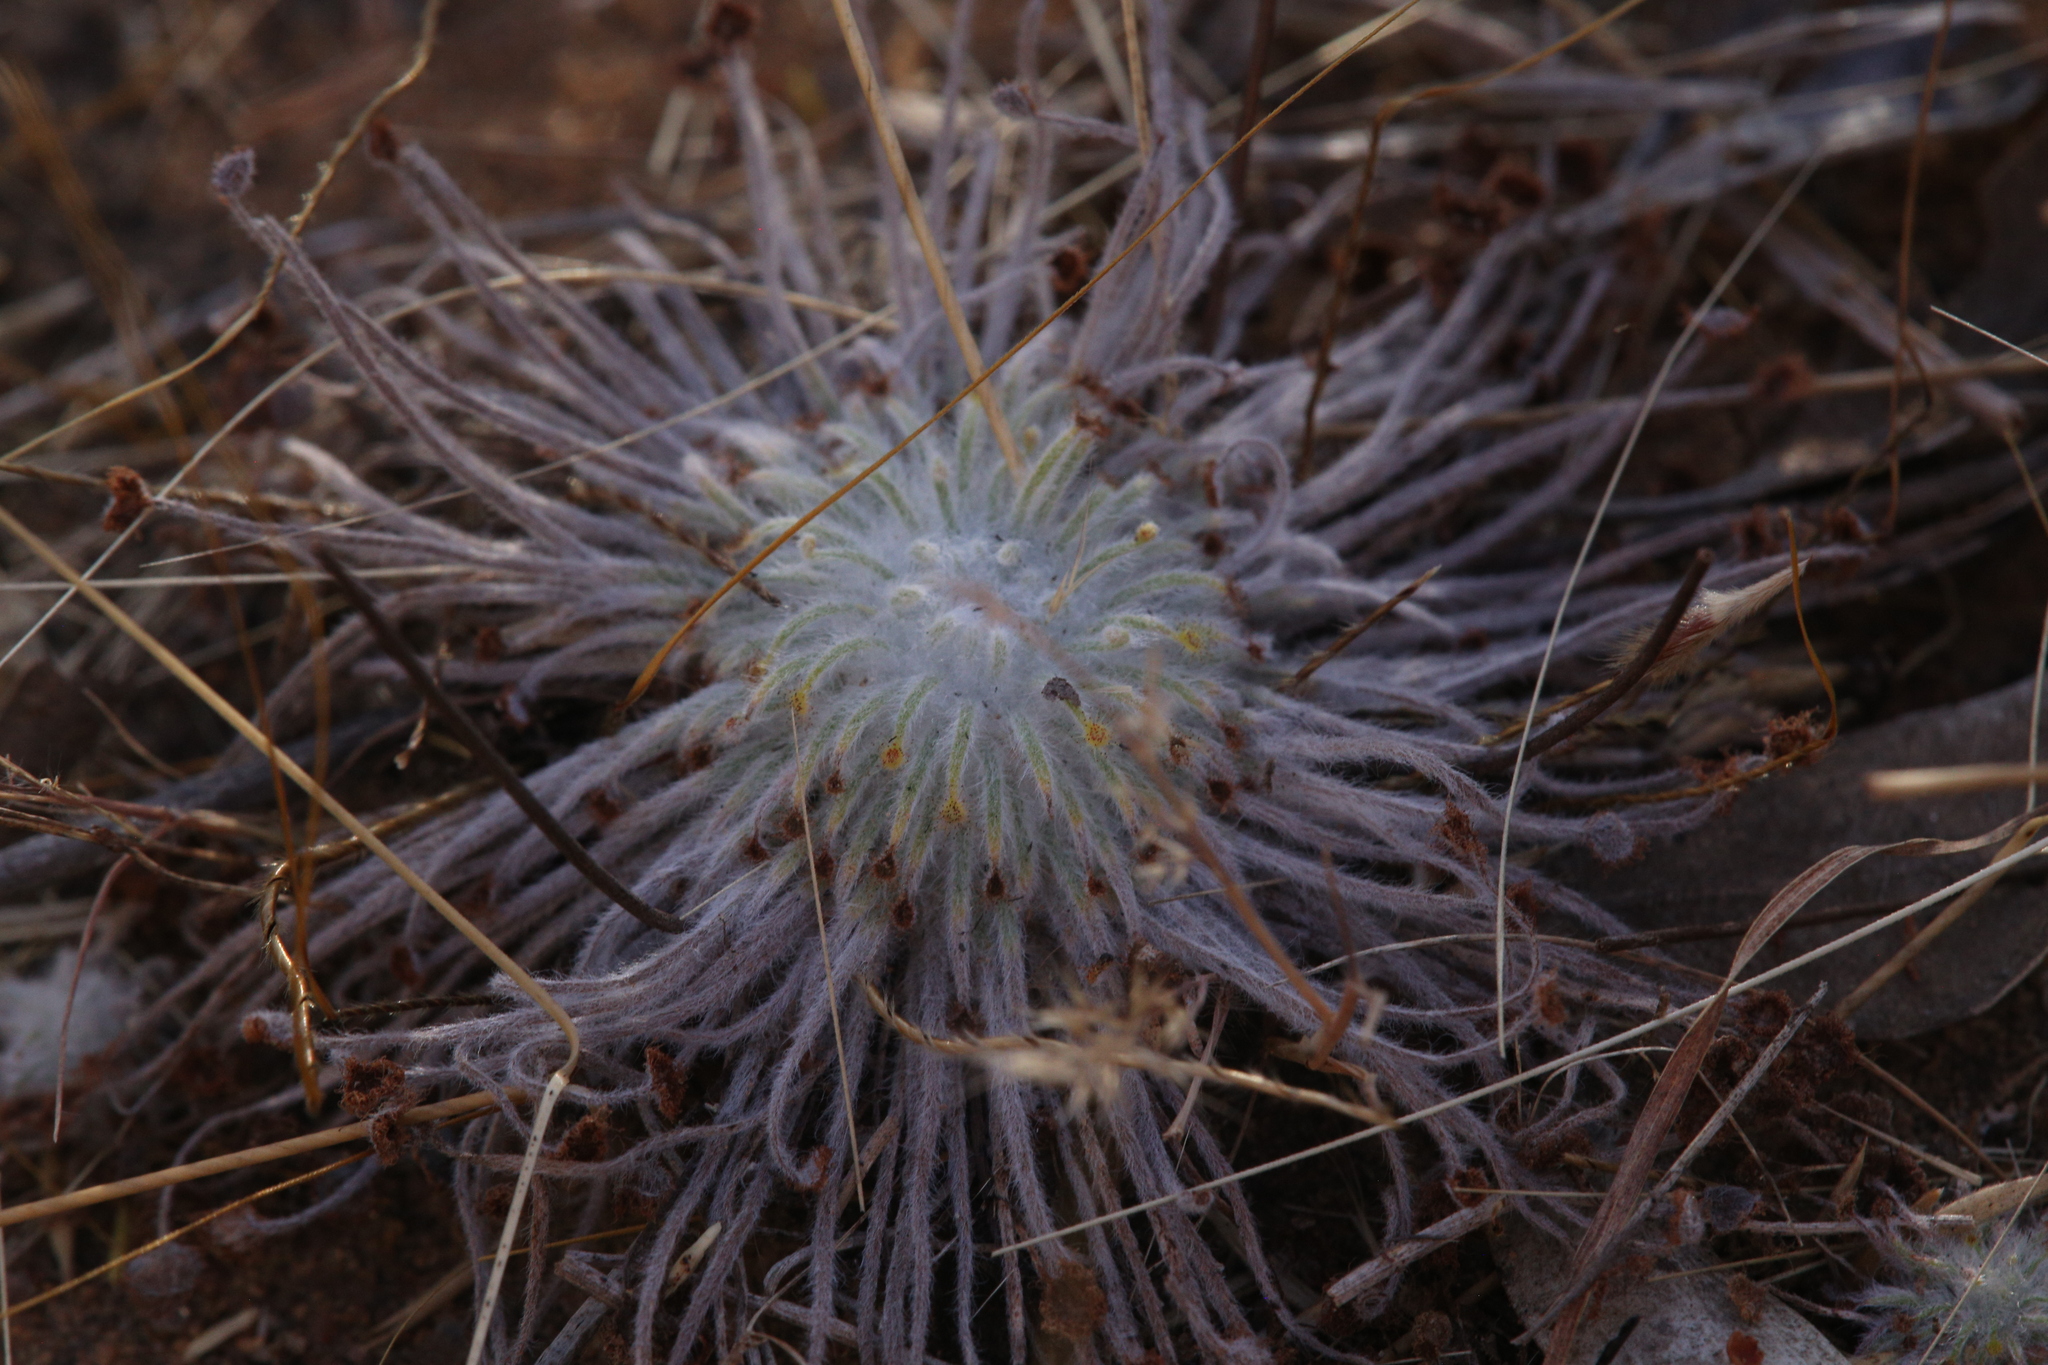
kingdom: Plantae
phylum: Tracheophyta
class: Magnoliopsida
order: Caryophyllales
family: Droseraceae
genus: Drosera
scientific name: Drosera broomensis
